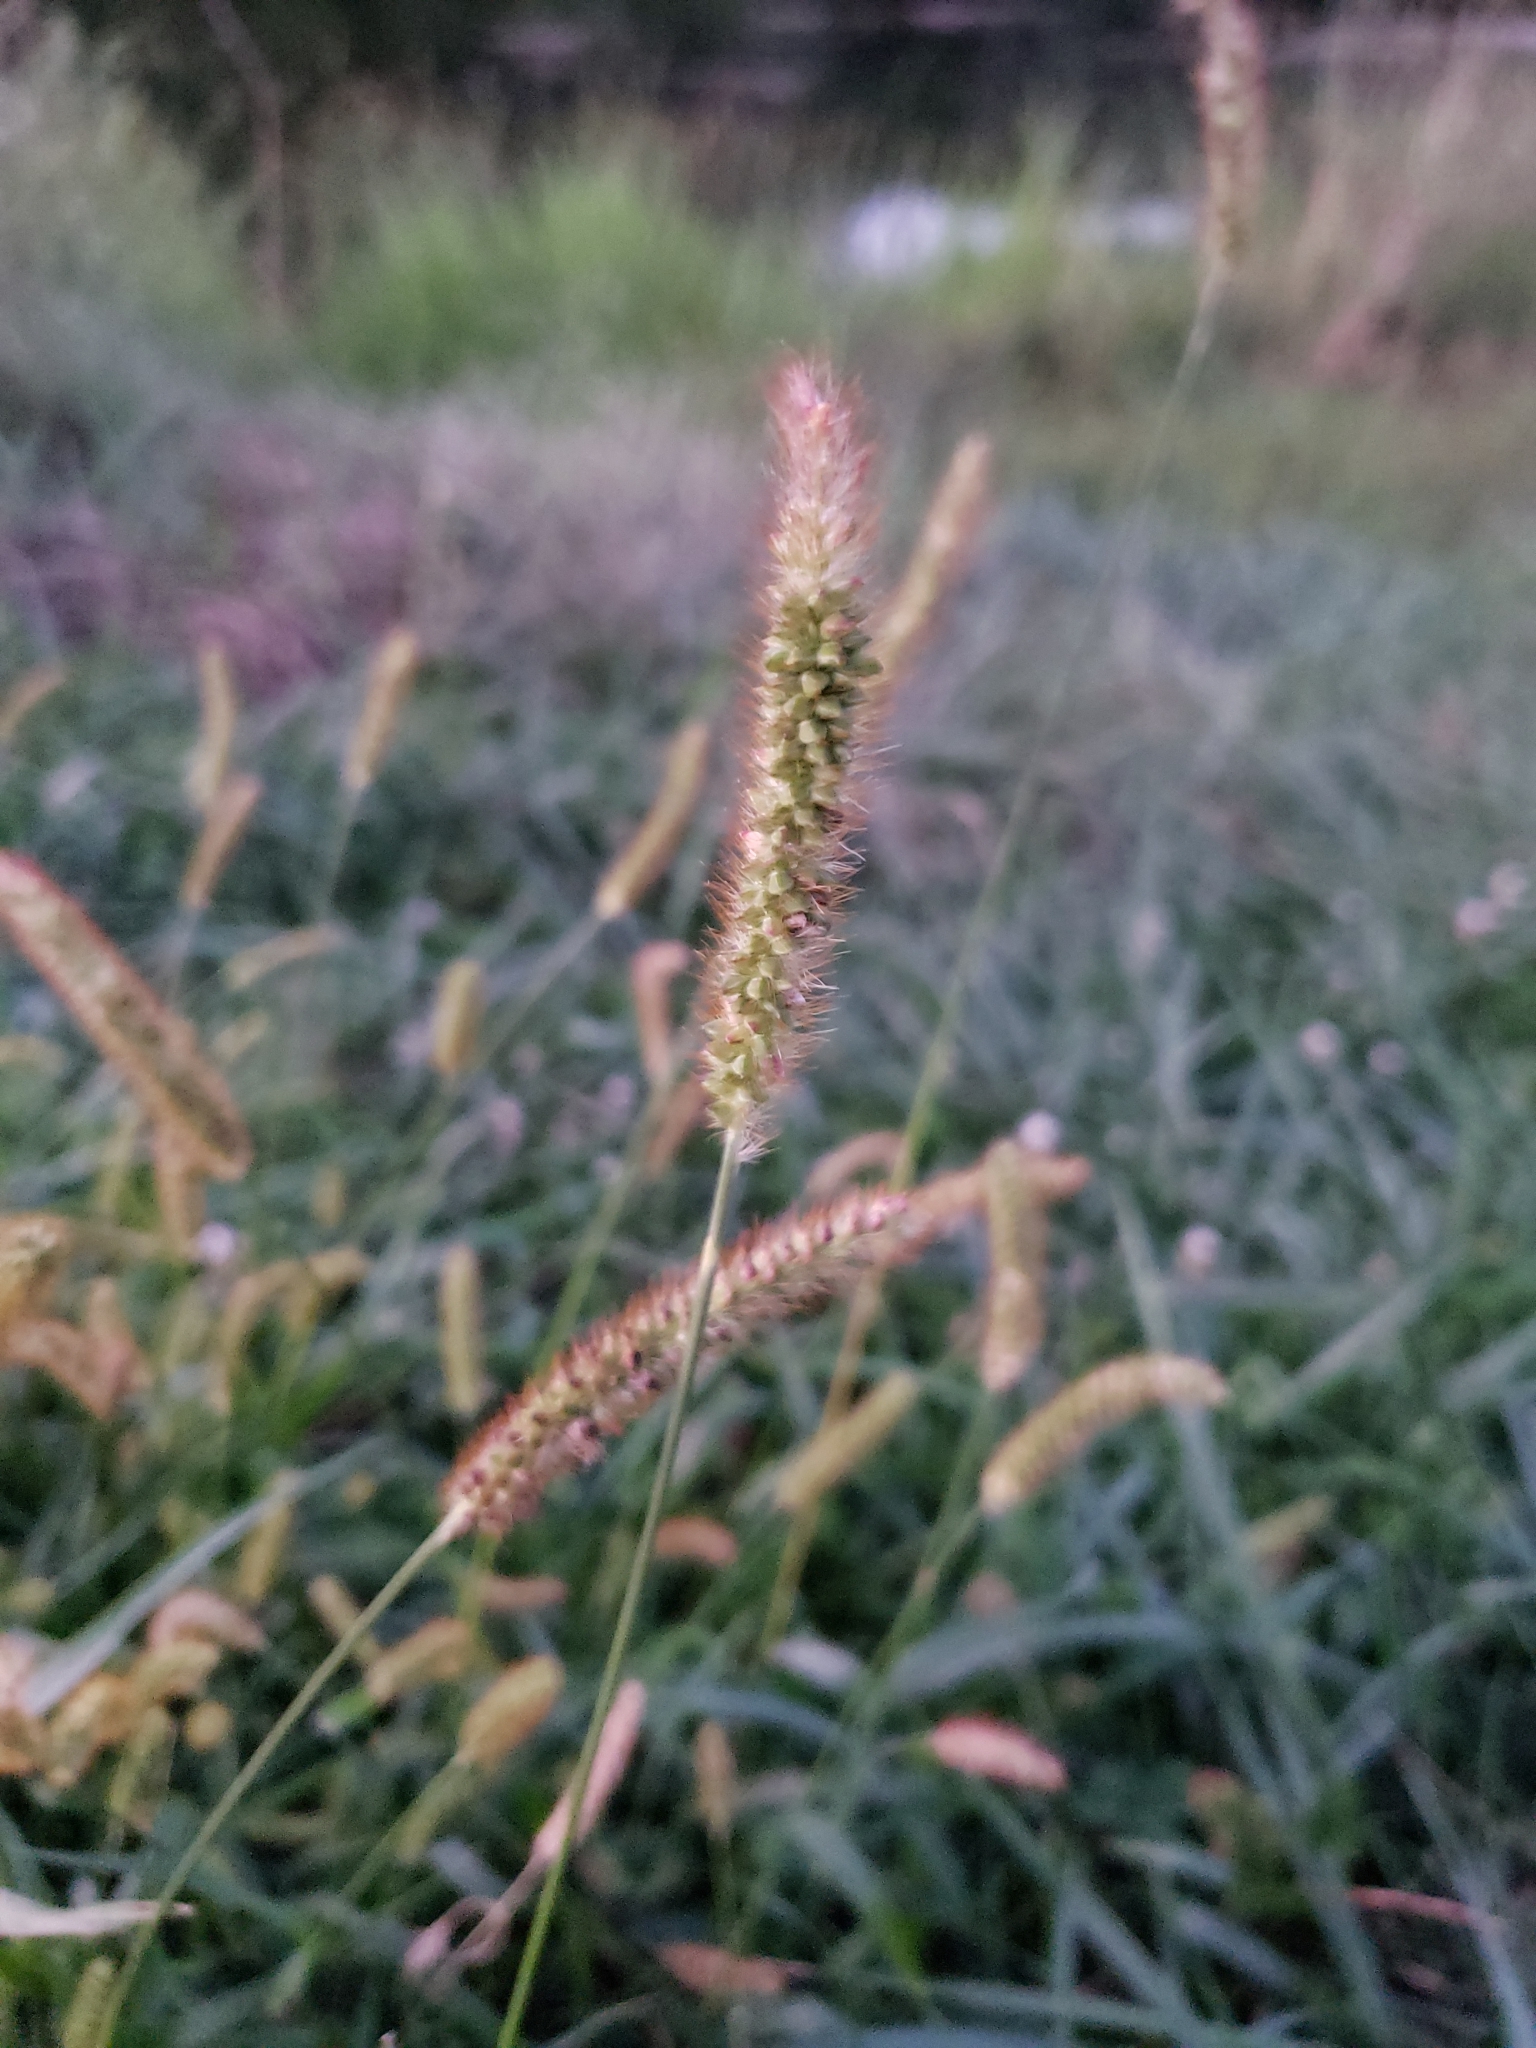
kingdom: Plantae
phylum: Tracheophyta
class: Liliopsida
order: Poales
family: Poaceae
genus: Setaria
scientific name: Setaria pumila
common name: Yellow bristle-grass
